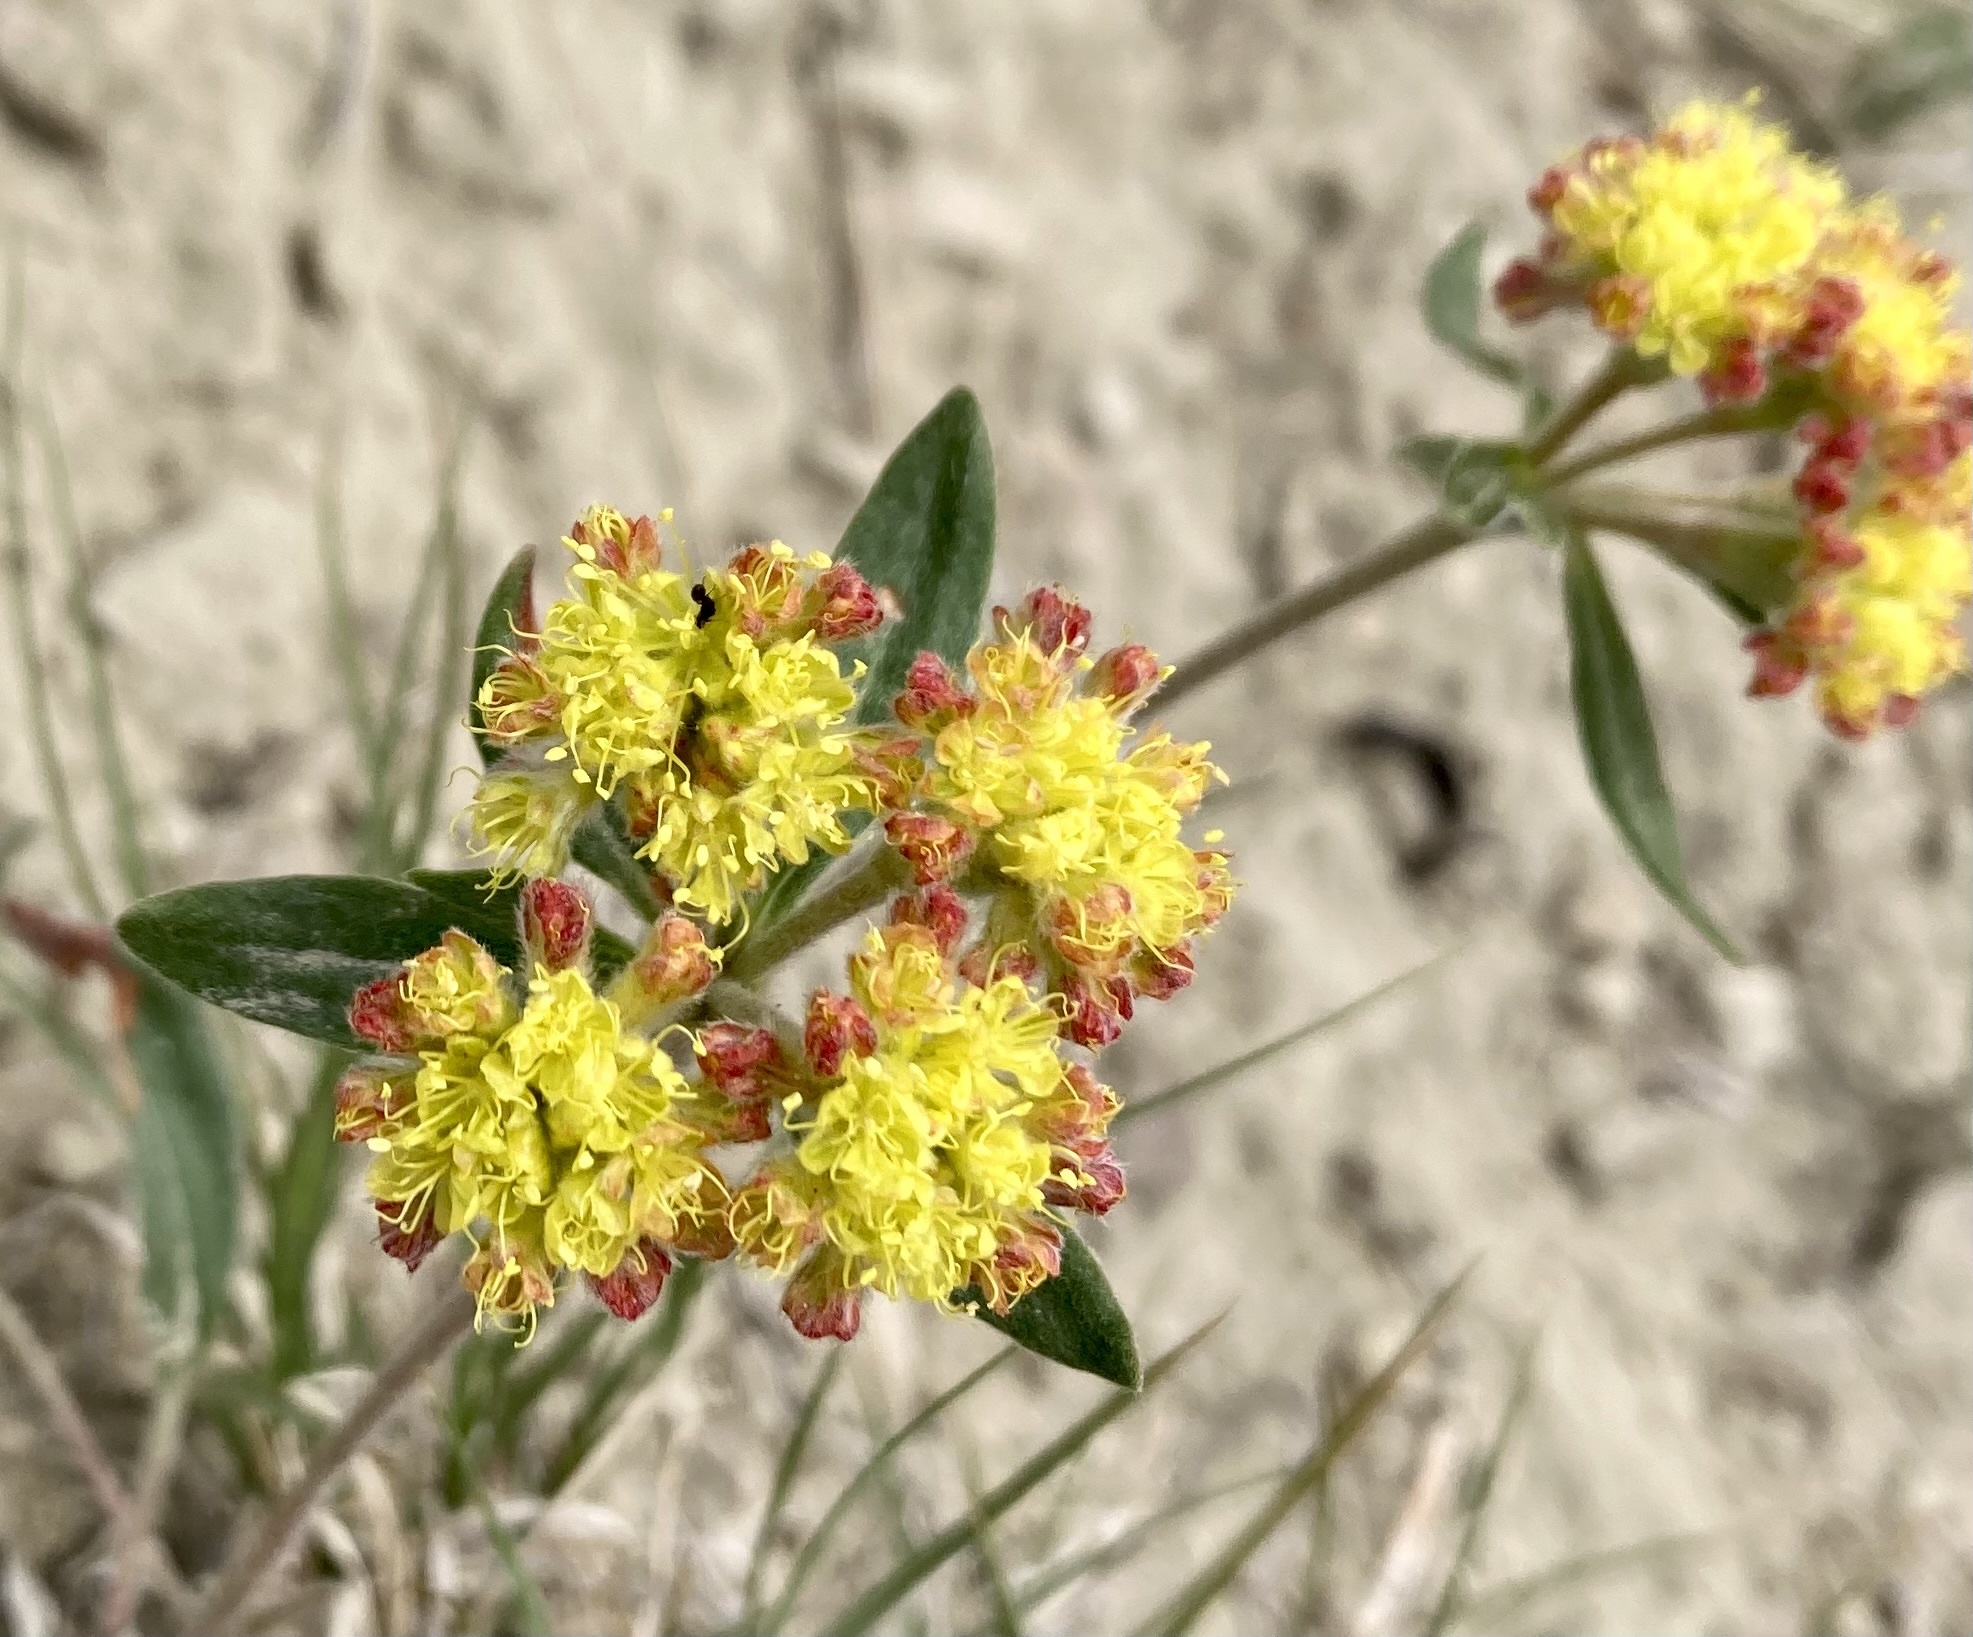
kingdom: Plantae
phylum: Tracheophyta
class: Magnoliopsida
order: Caryophyllales
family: Polygonaceae
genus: Eriogonum
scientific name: Eriogonum flavum
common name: Alpine golden wild buckwheat
